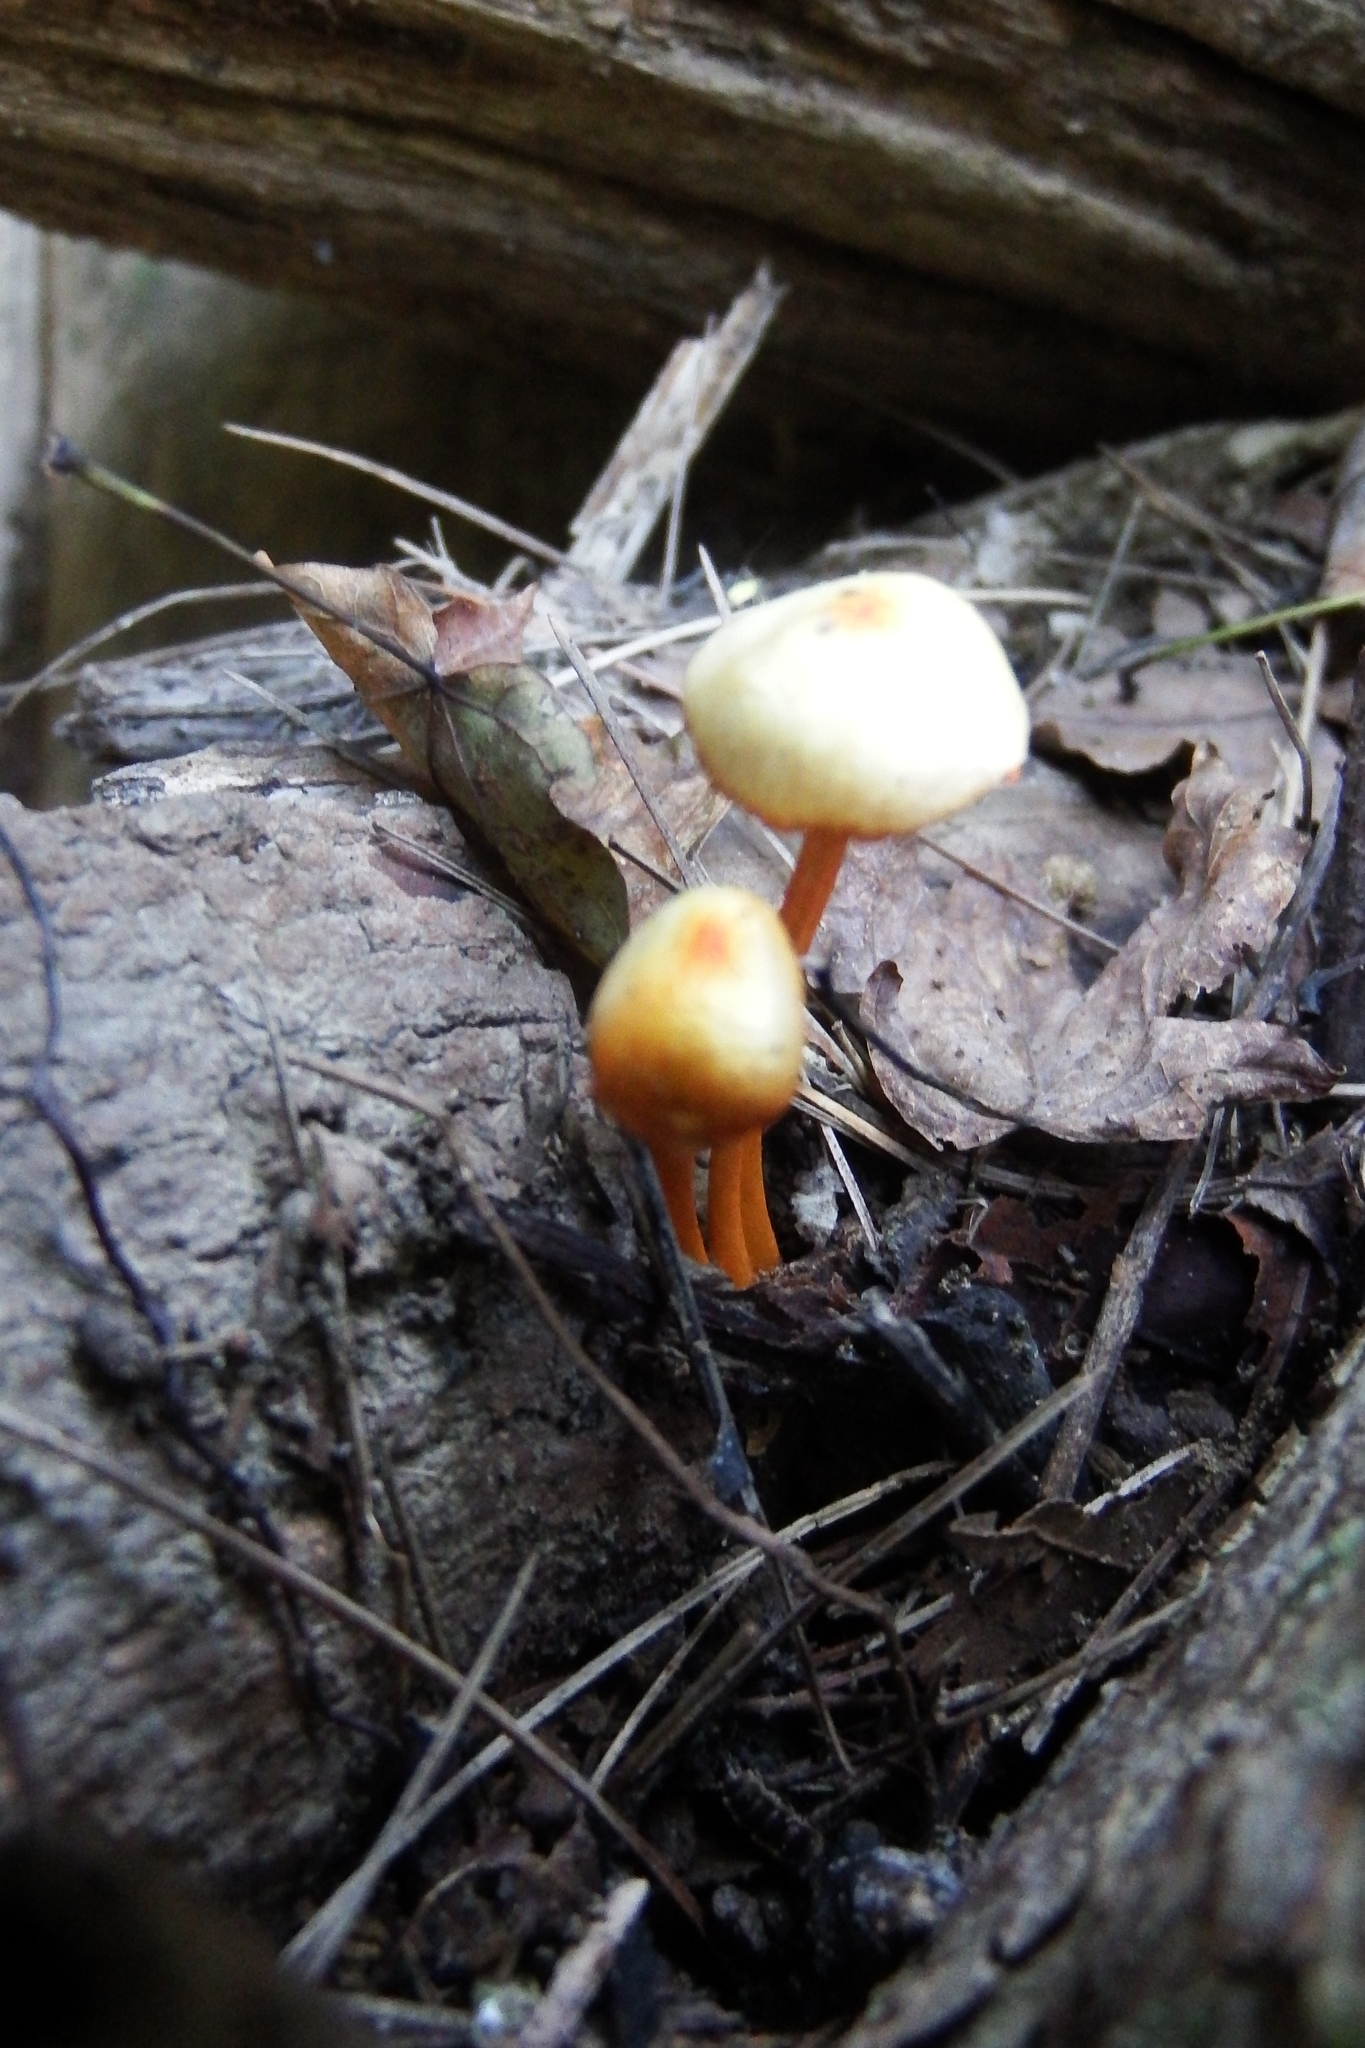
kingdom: Fungi
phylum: Basidiomycota
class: Agaricomycetes
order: Agaricales
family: Mycenaceae
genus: Mycena
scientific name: Mycena leaiana
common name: Orange mycena
